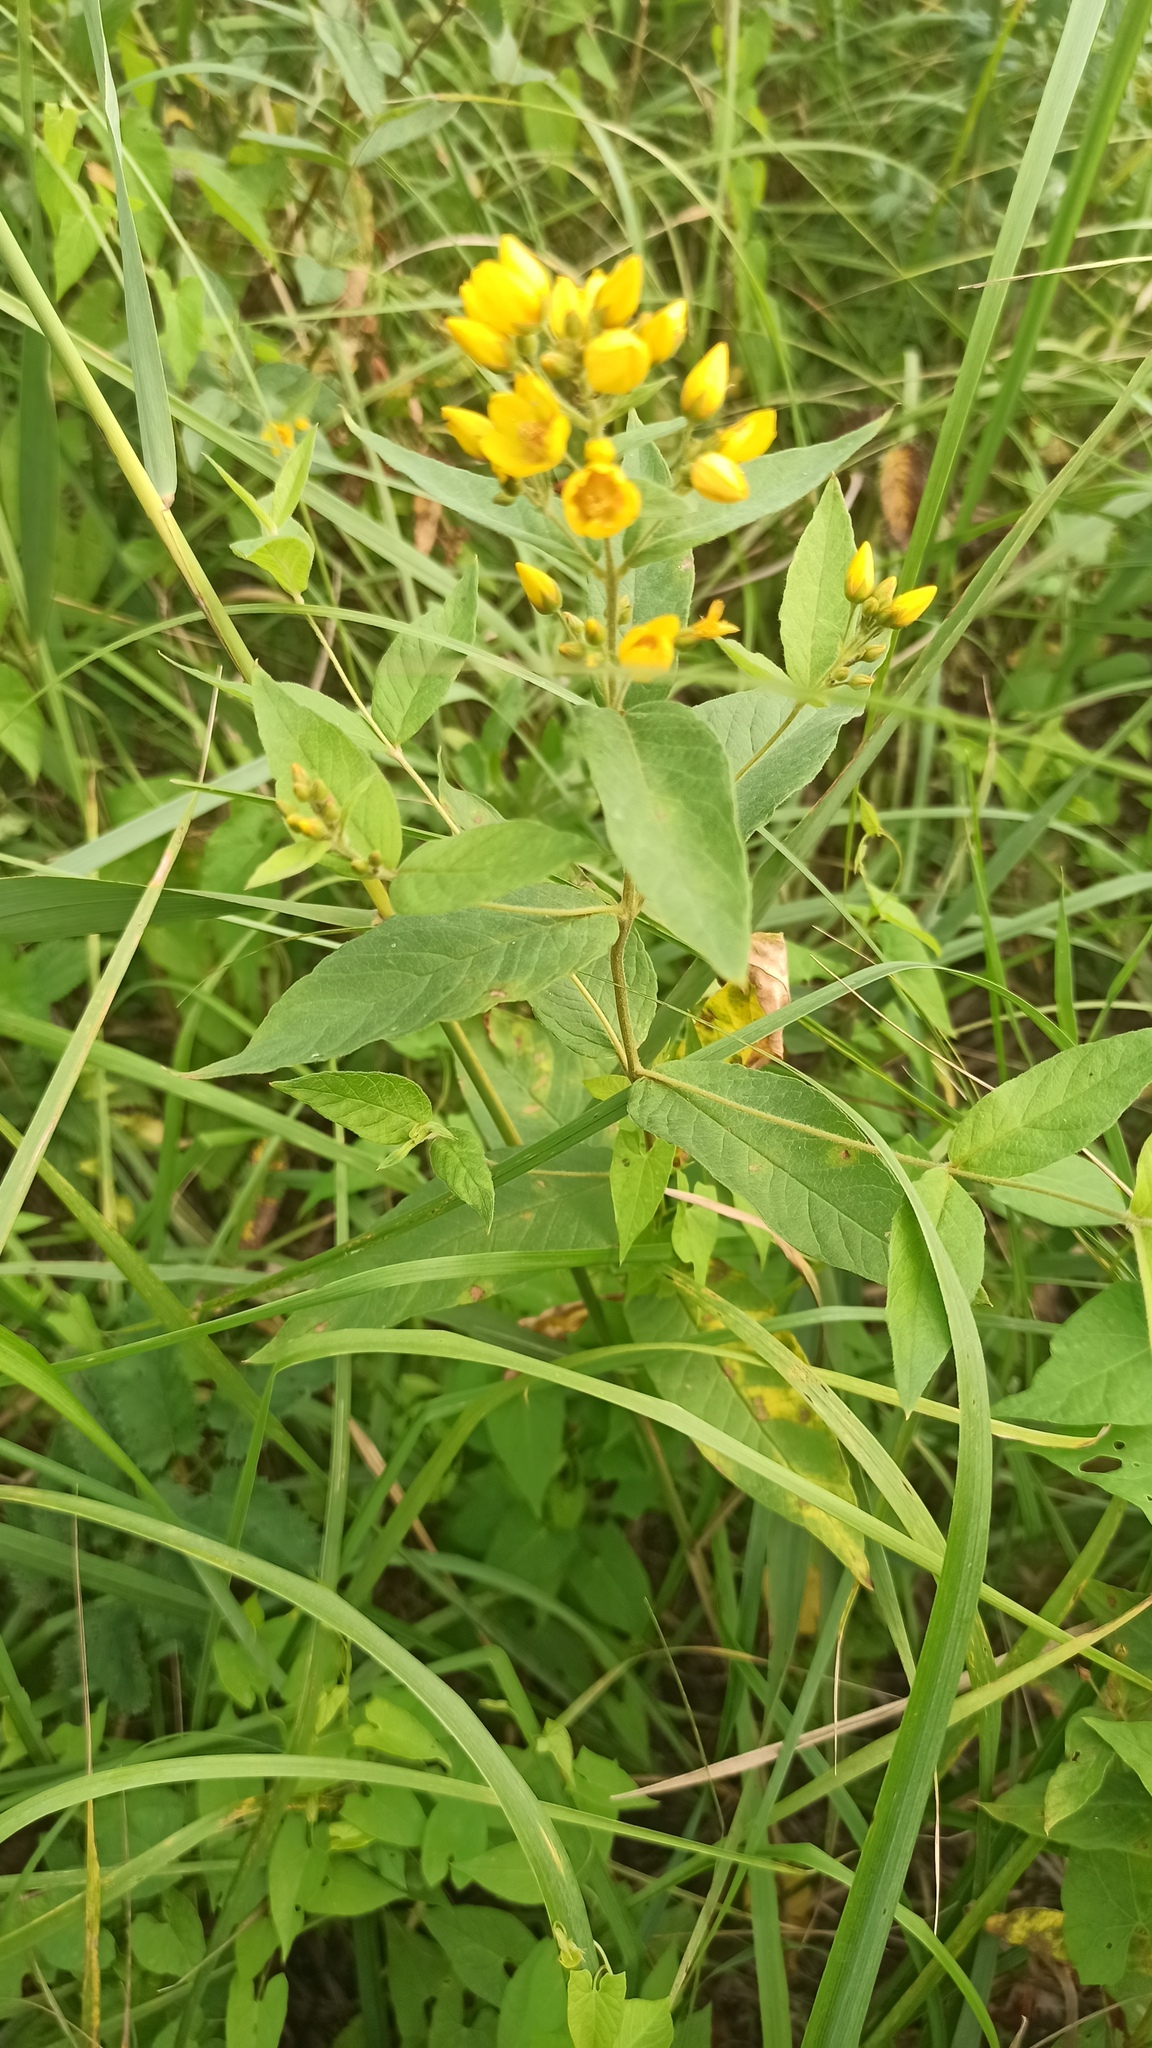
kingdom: Plantae
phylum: Tracheophyta
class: Magnoliopsida
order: Ericales
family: Primulaceae
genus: Lysimachia
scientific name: Lysimachia vulgaris
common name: Yellow loosestrife
